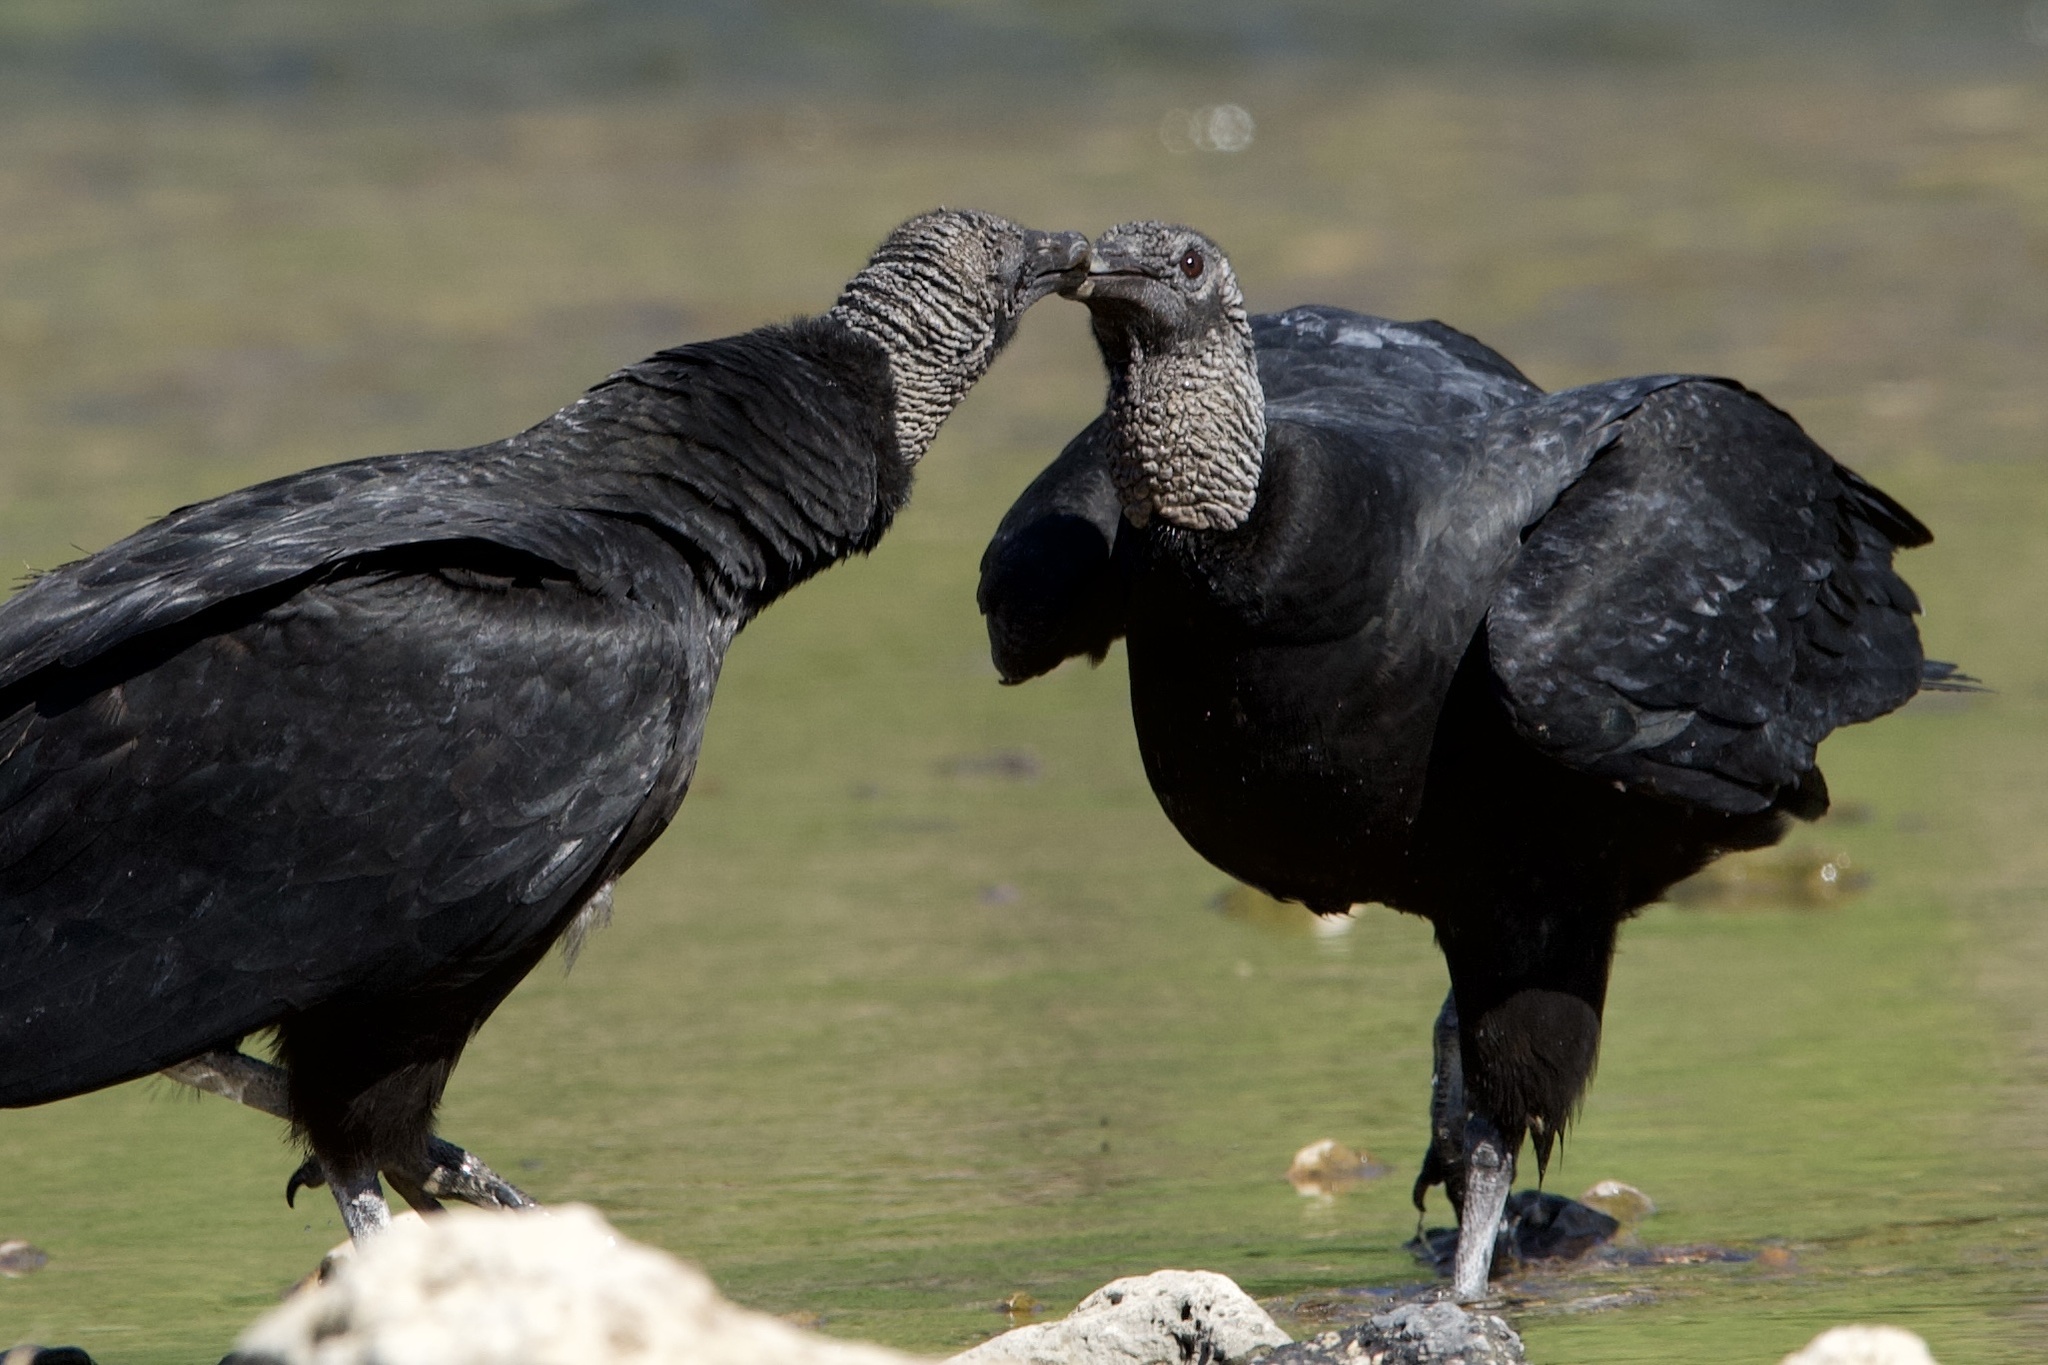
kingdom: Animalia
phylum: Chordata
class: Aves
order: Accipitriformes
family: Cathartidae
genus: Coragyps
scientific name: Coragyps atratus
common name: Black vulture
